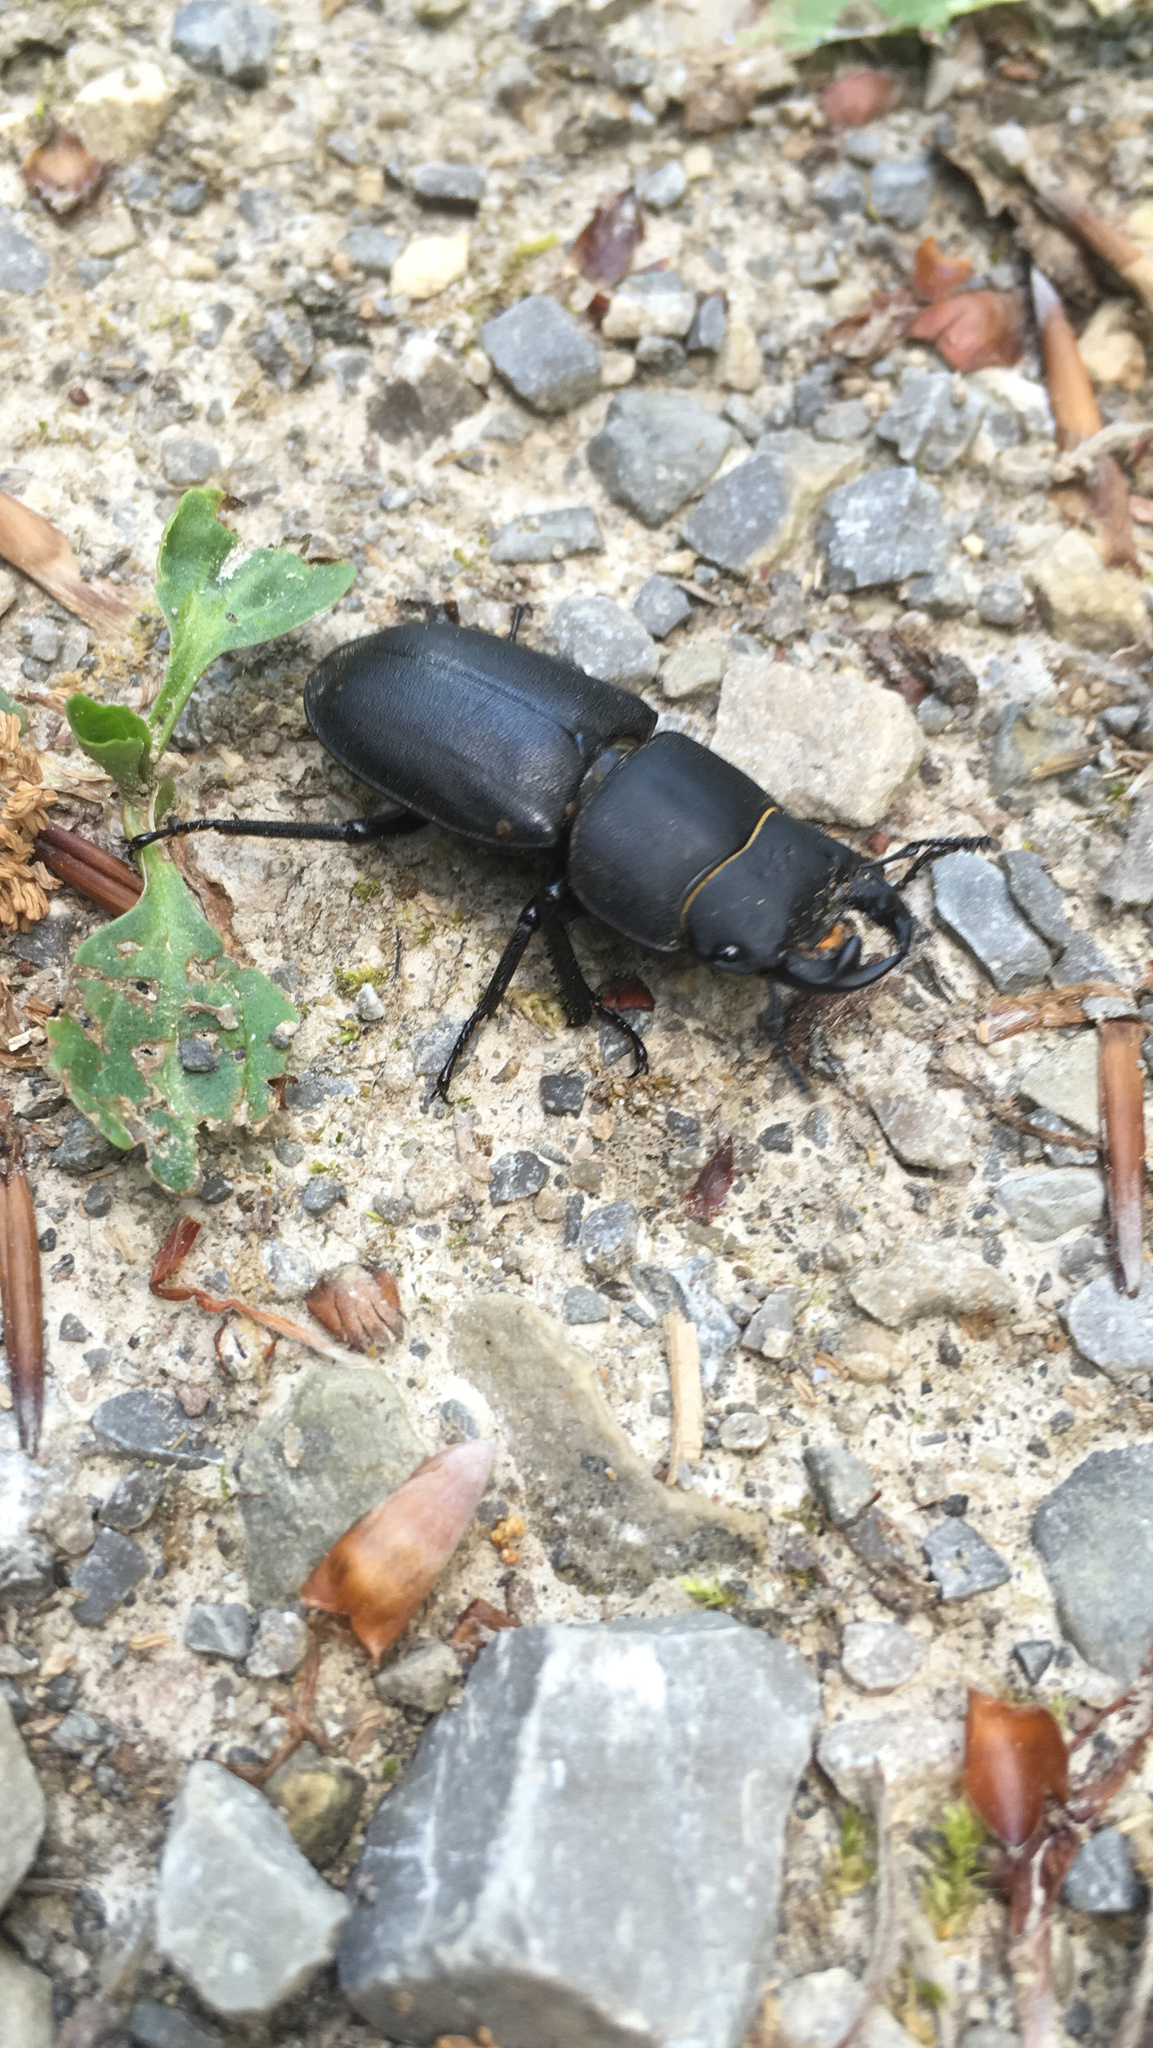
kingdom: Animalia
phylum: Arthropoda
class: Insecta
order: Coleoptera
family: Lucanidae
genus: Dorcus
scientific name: Dorcus parallelipipedus
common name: Lesser stag beetle
